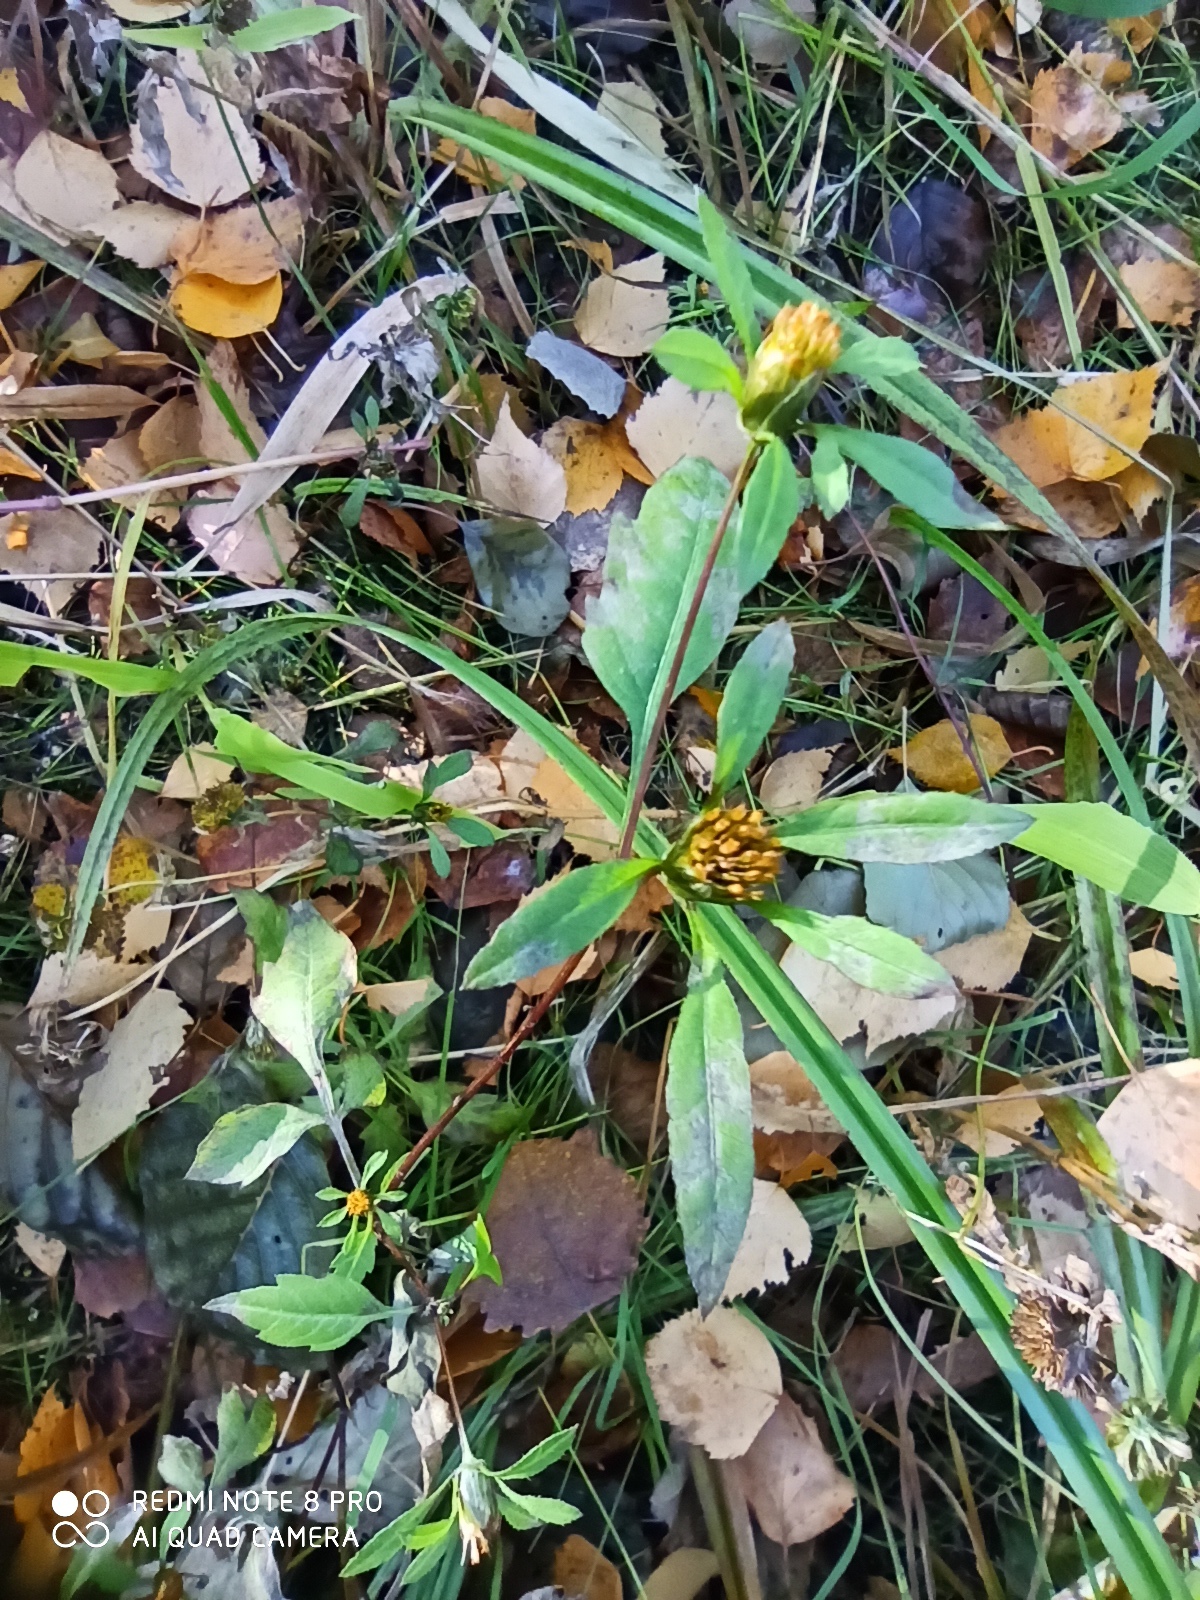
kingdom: Plantae
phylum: Tracheophyta
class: Magnoliopsida
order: Asterales
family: Asteraceae
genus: Bidens
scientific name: Bidens frondosa
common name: Beggarticks
